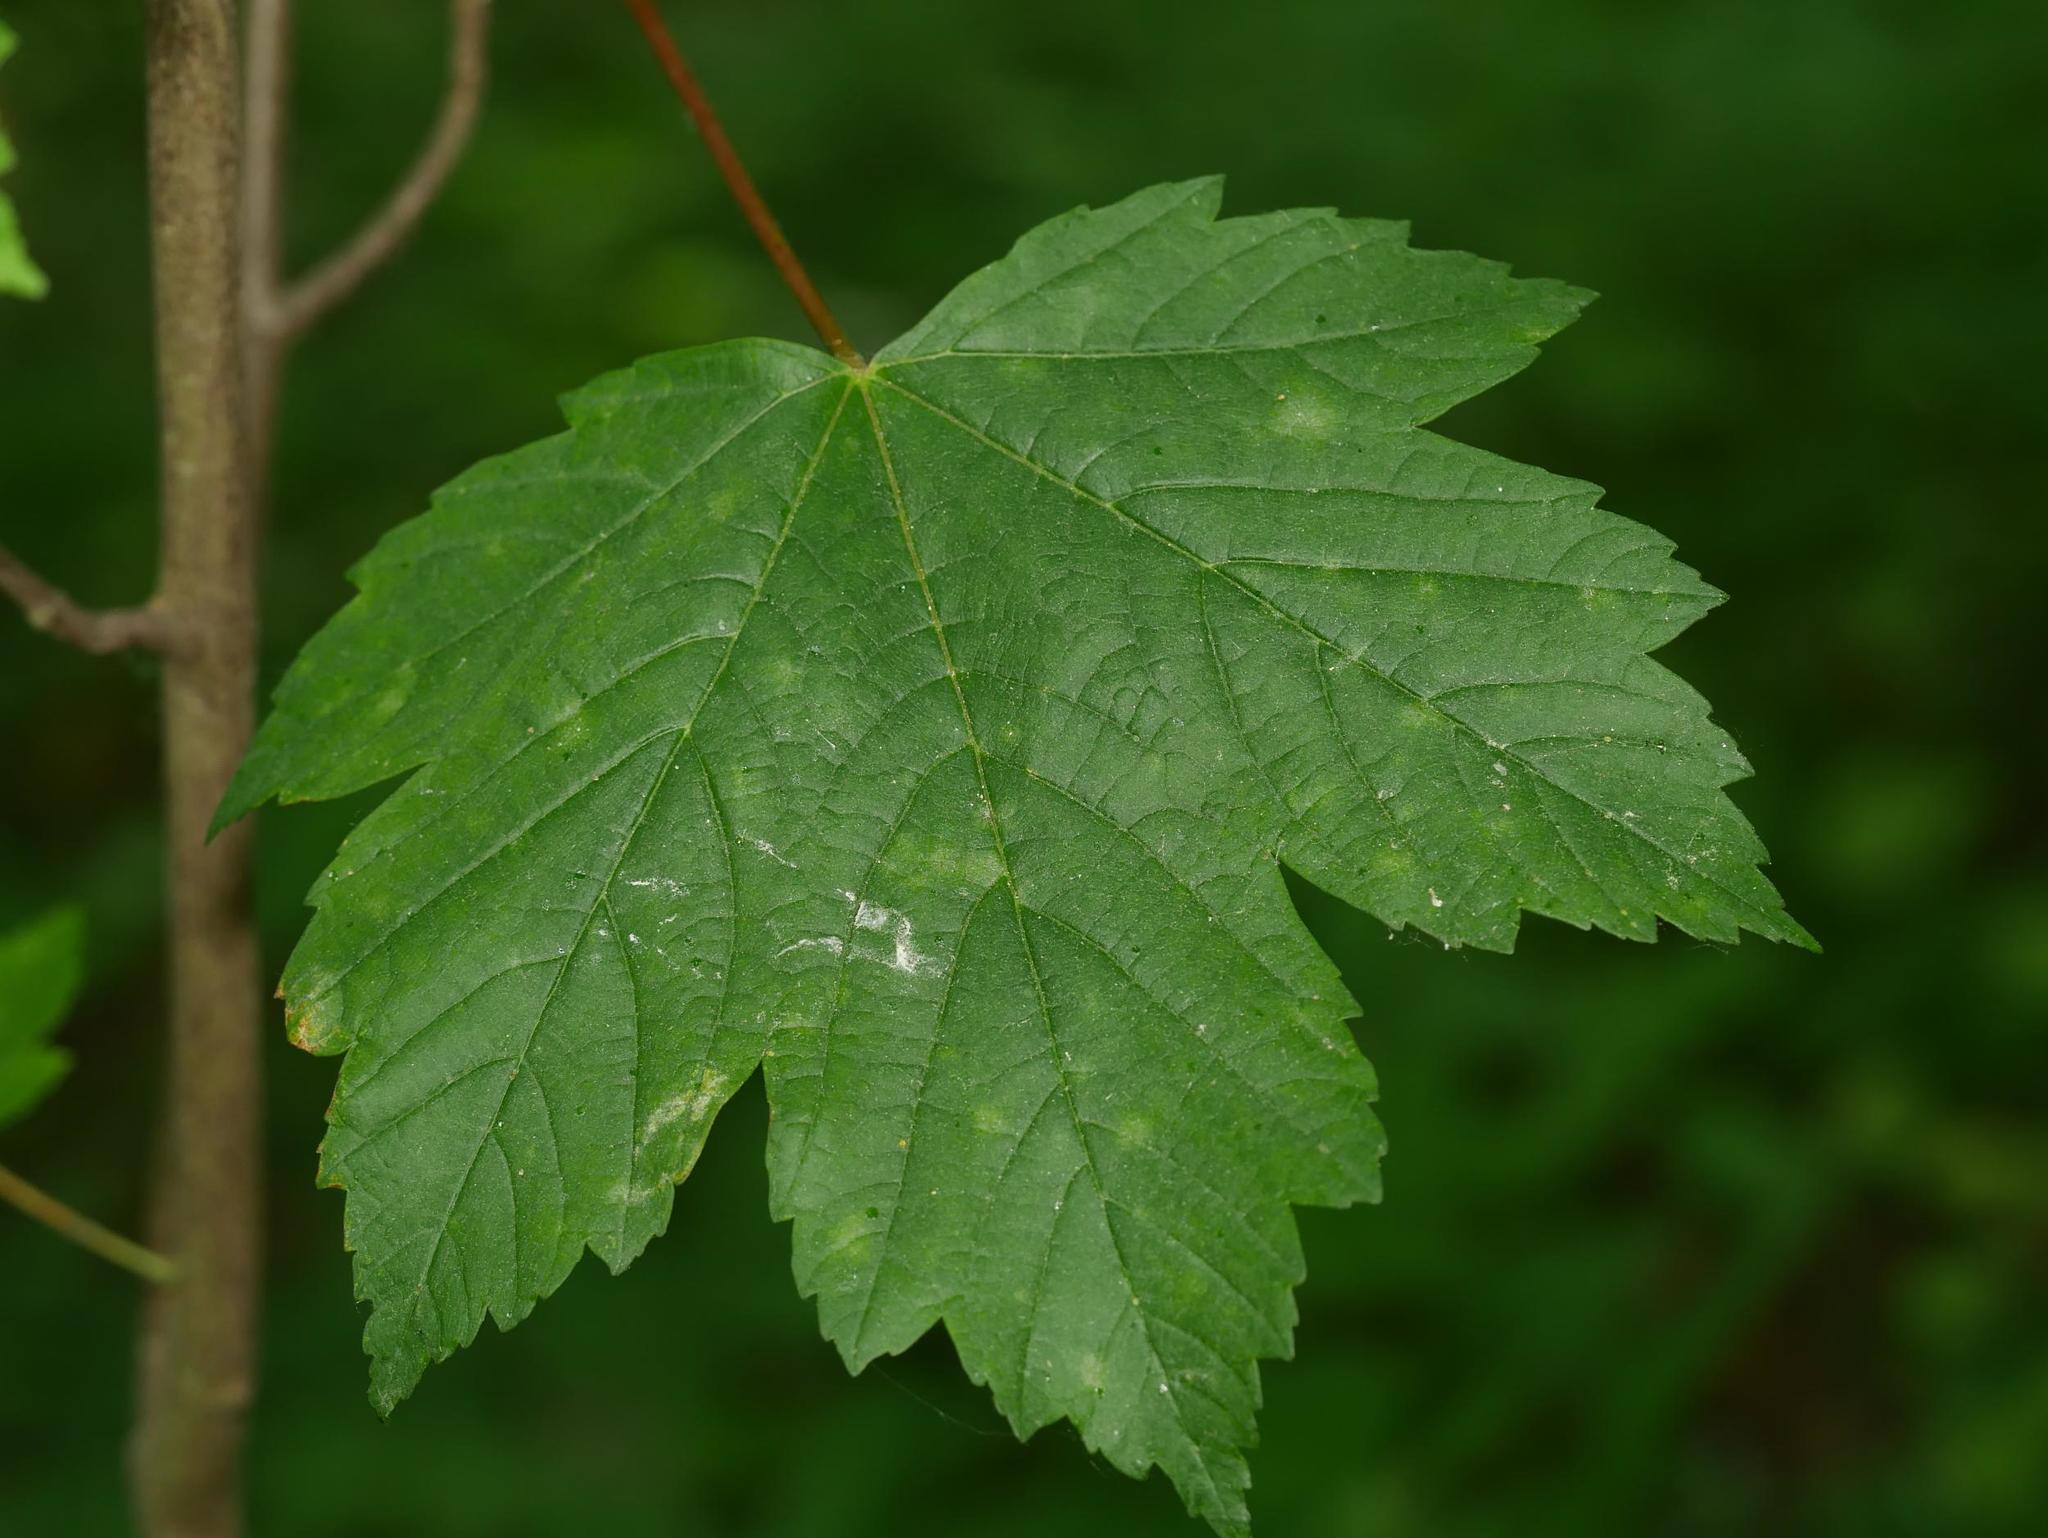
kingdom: Plantae
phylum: Tracheophyta
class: Magnoliopsida
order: Sapindales
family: Sapindaceae
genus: Acer
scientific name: Acer pseudoplatanus
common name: Sycamore
